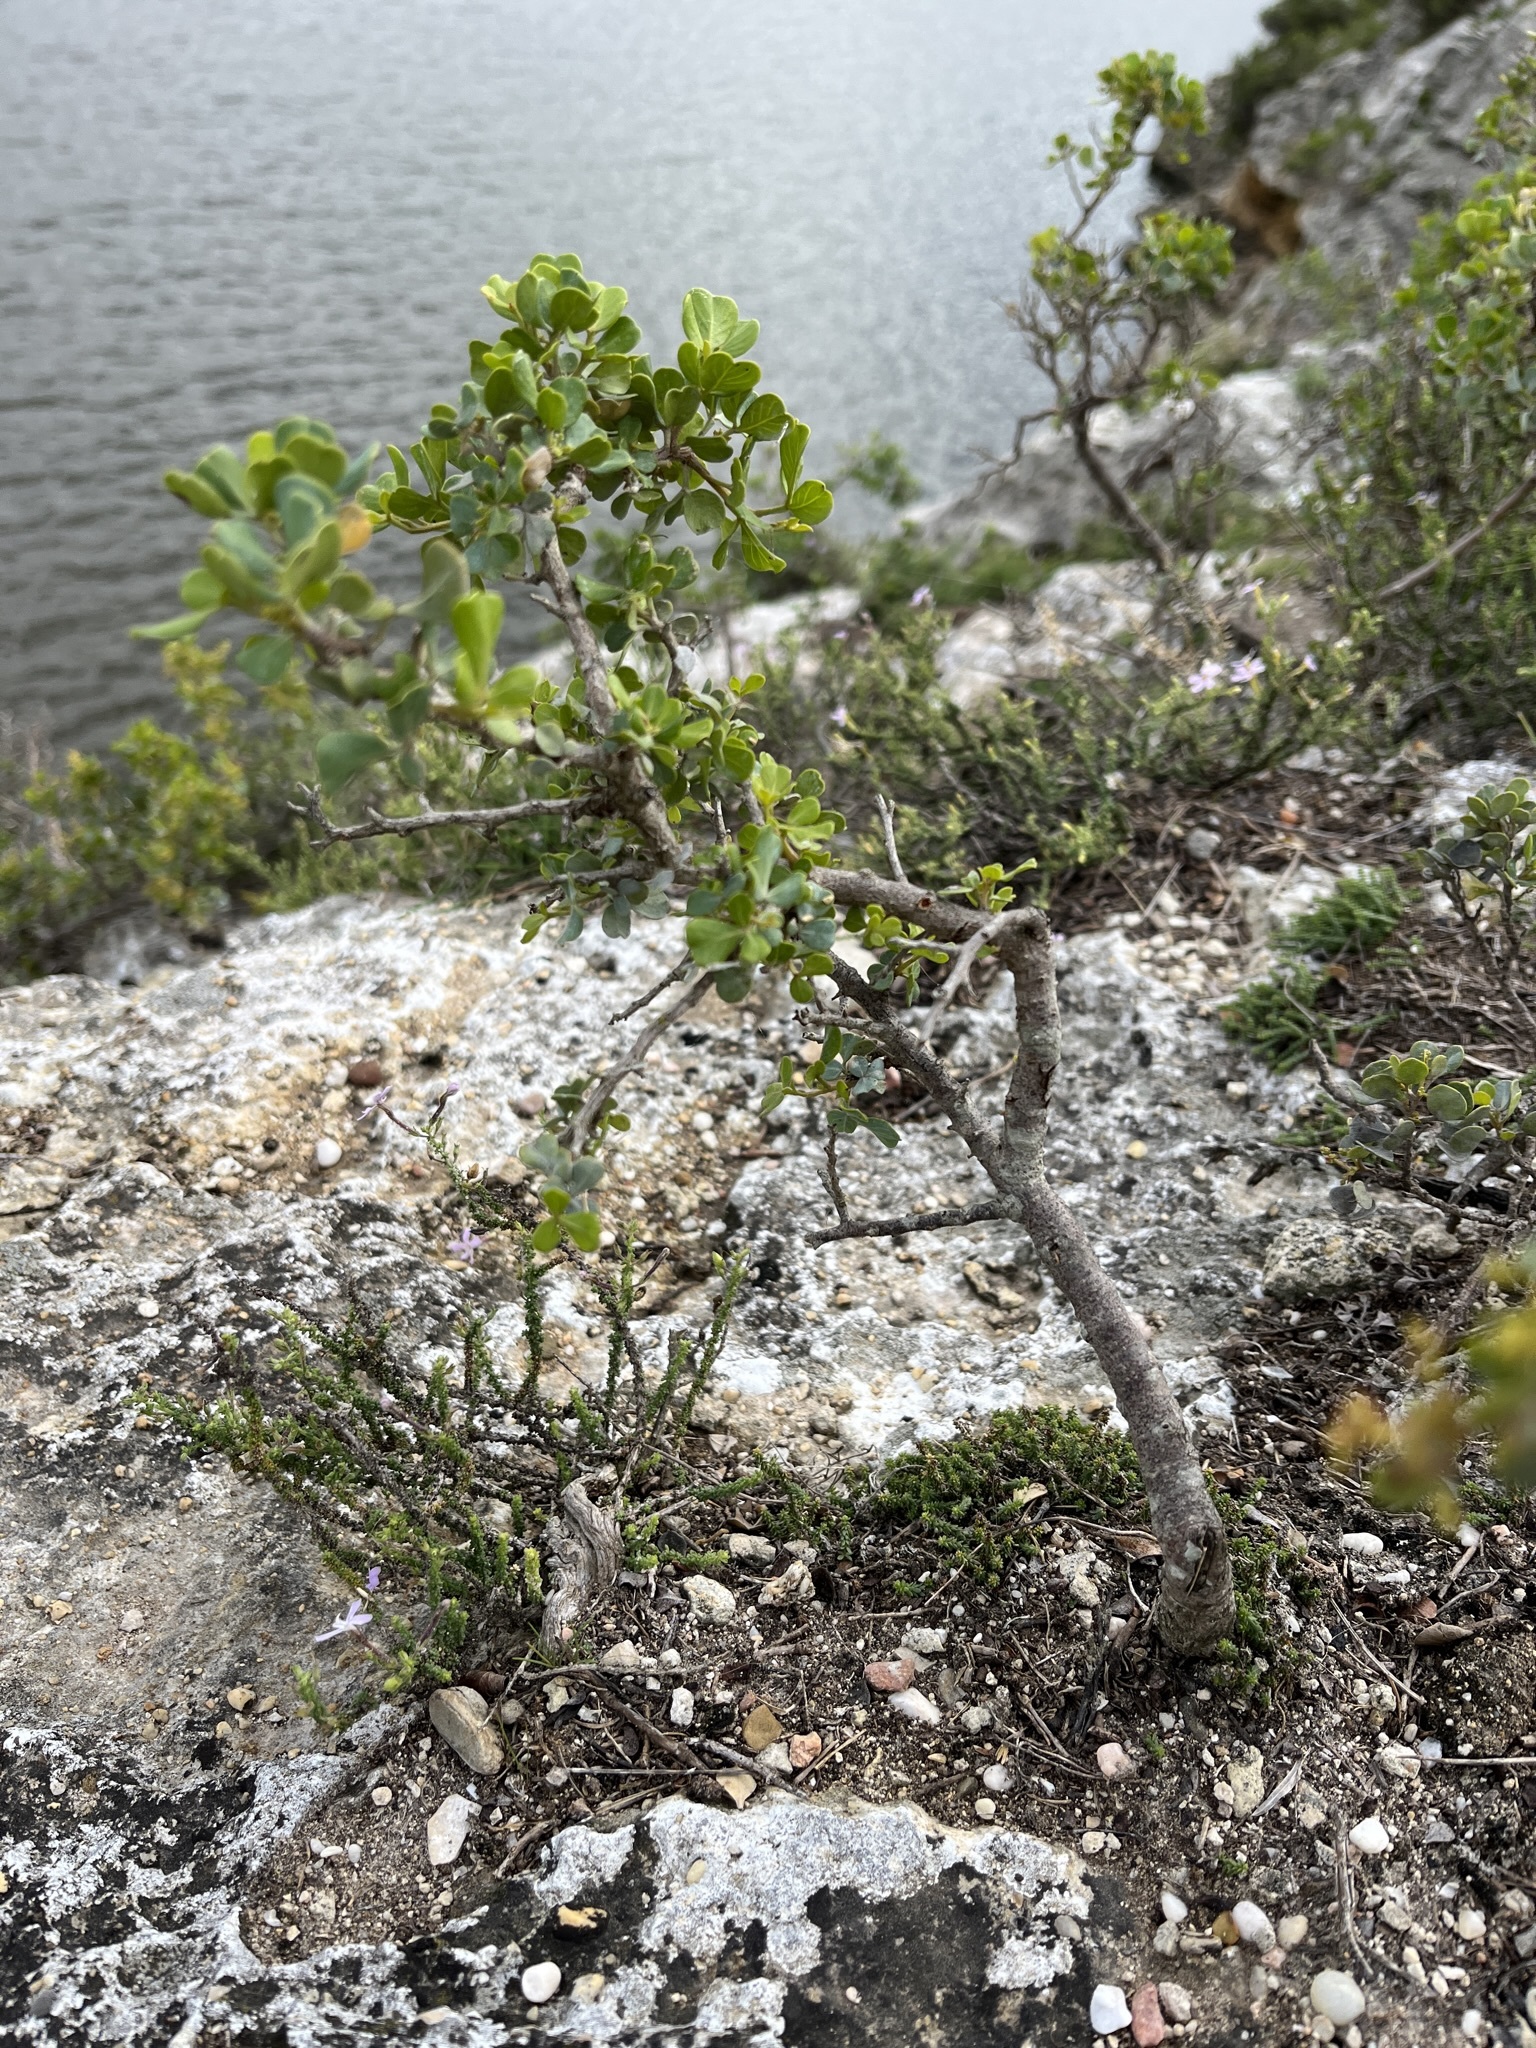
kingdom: Plantae
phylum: Tracheophyta
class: Magnoliopsida
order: Sapindales
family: Anacardiaceae
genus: Searsia
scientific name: Searsia glauca
